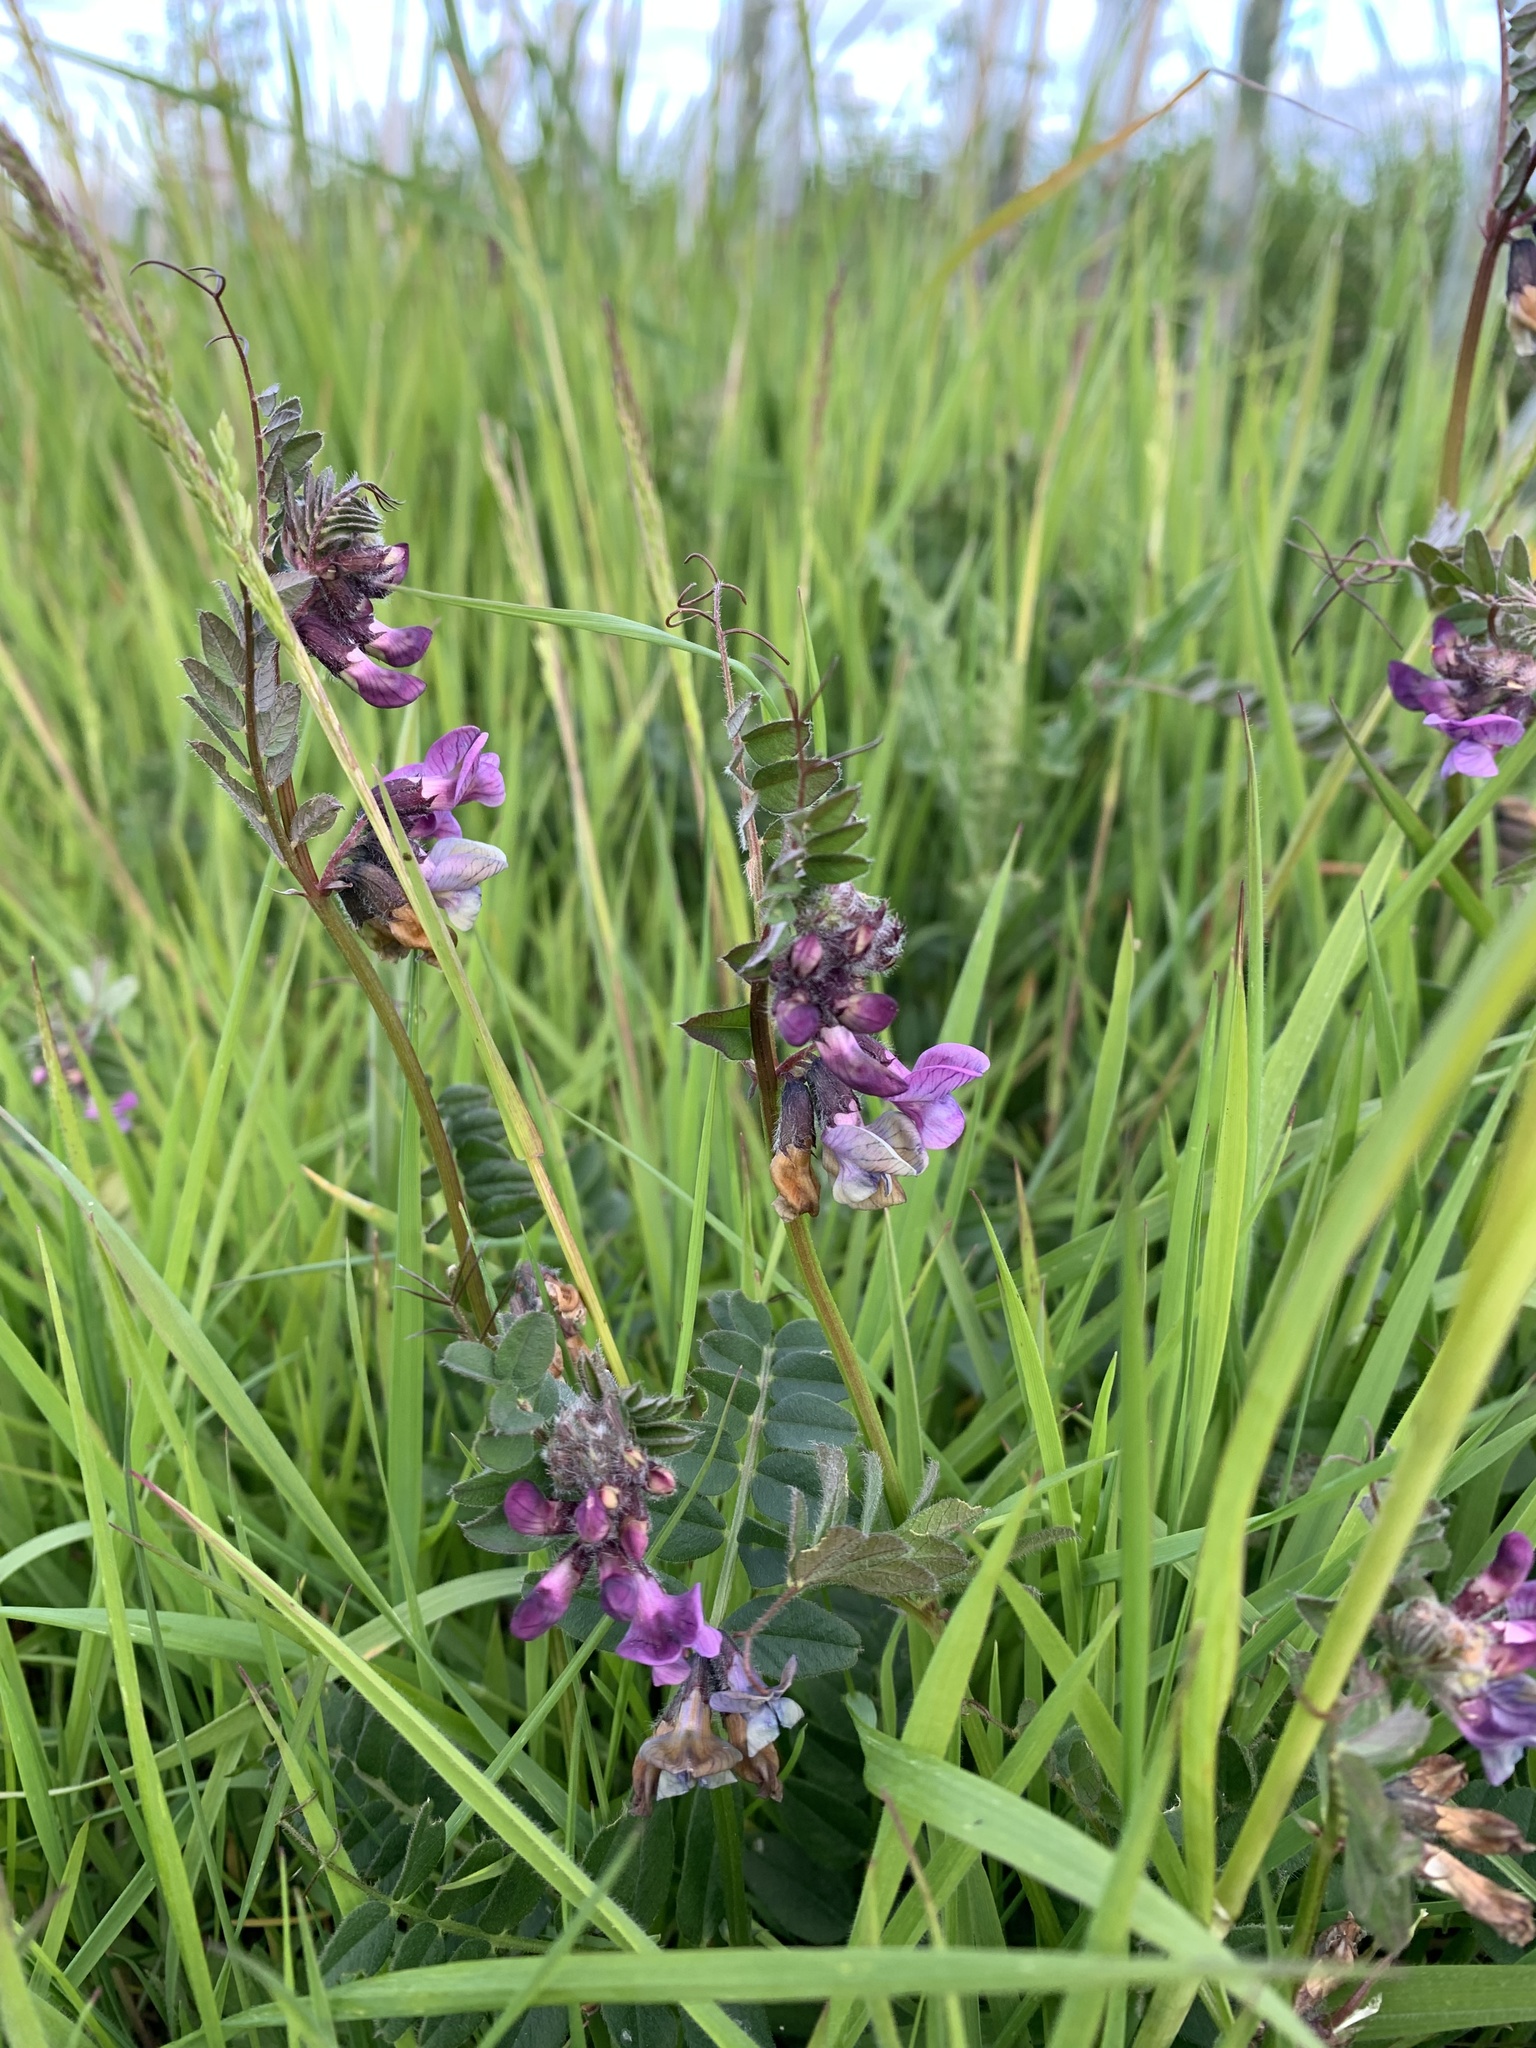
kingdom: Plantae
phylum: Tracheophyta
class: Magnoliopsida
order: Fabales
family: Fabaceae
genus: Vicia
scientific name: Vicia sepium
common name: Bush vetch
